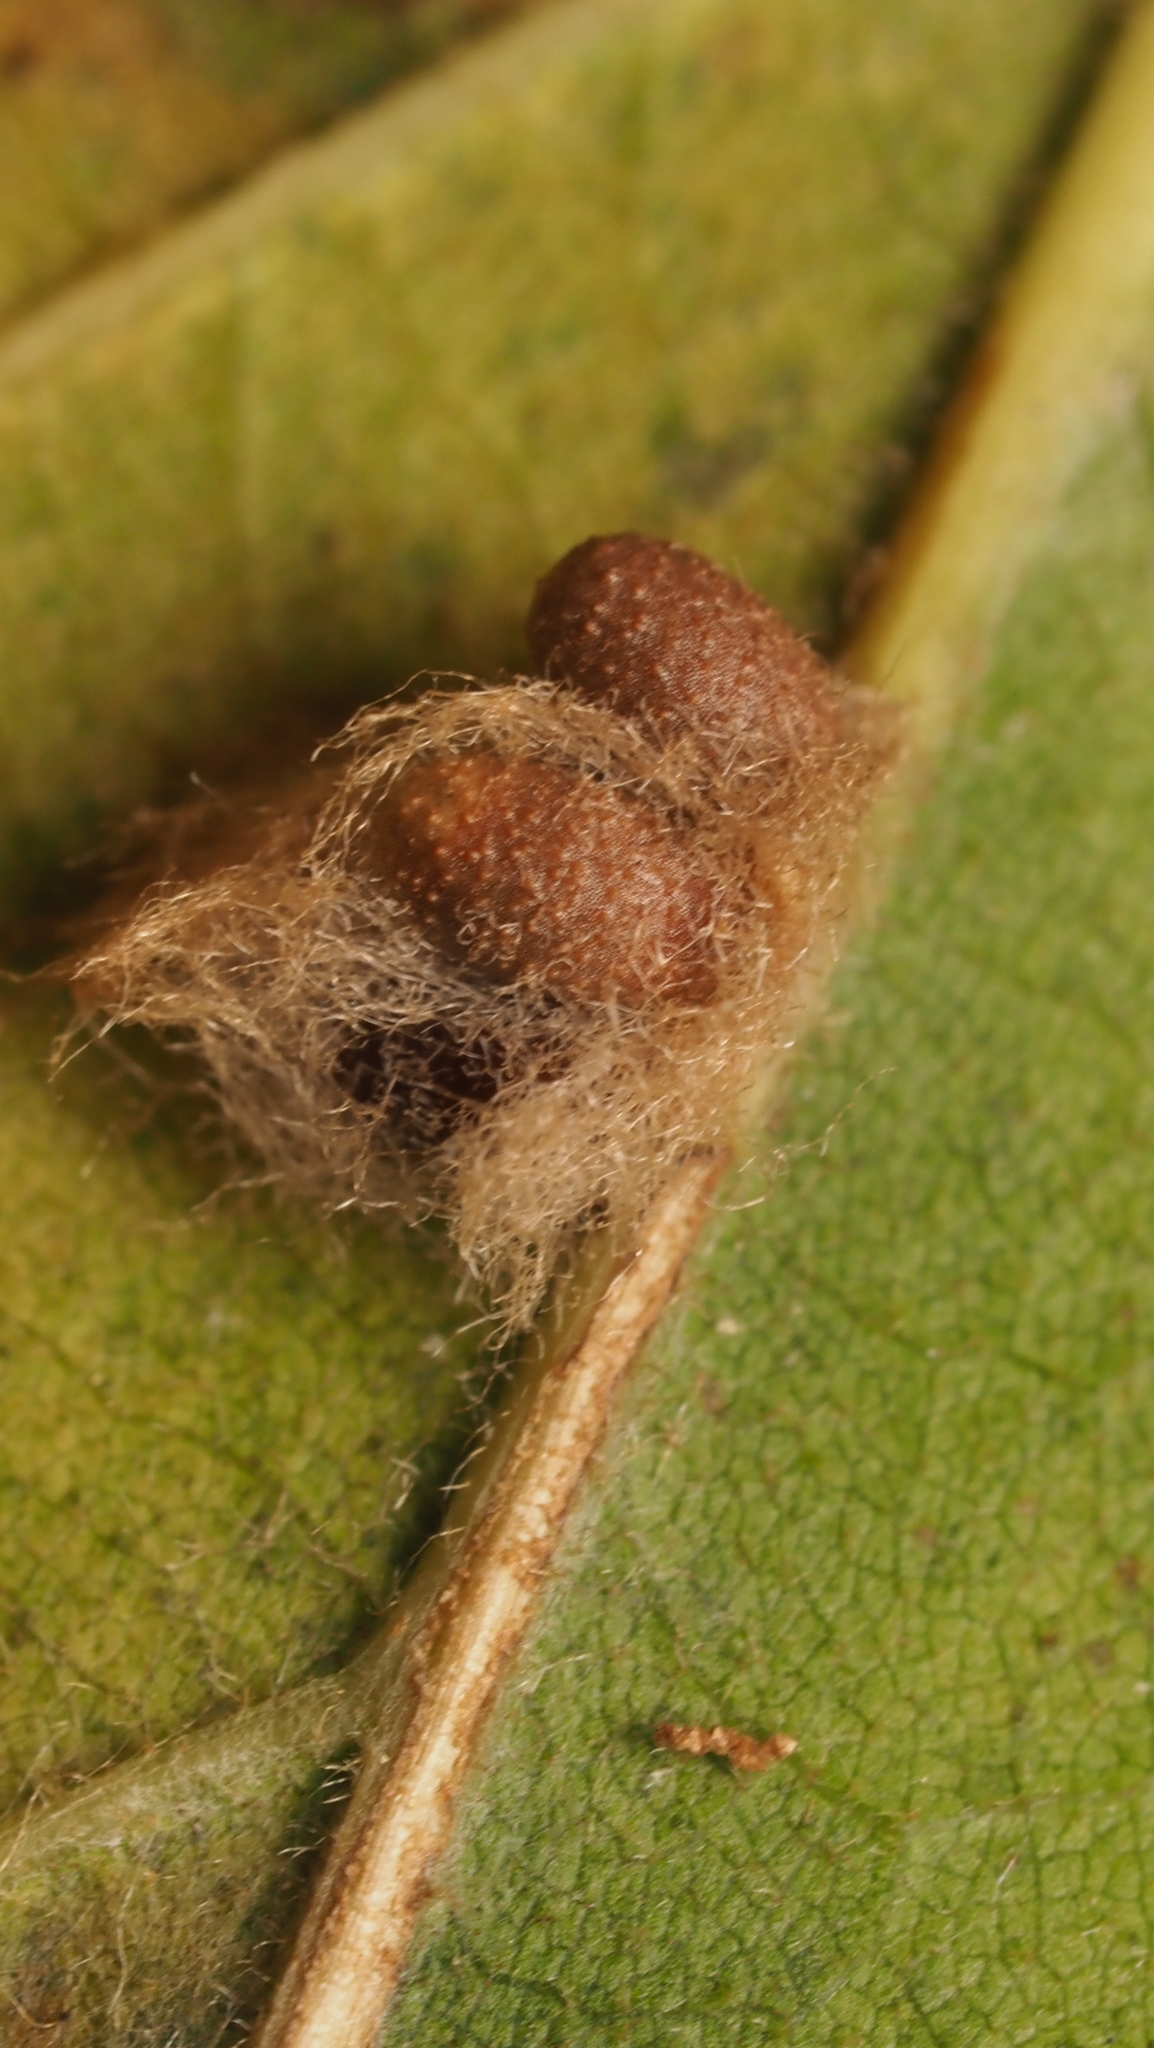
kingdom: Animalia
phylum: Arthropoda
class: Insecta
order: Hymenoptera
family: Cynipidae
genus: Andricus
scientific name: Andricus Druon ignotum
